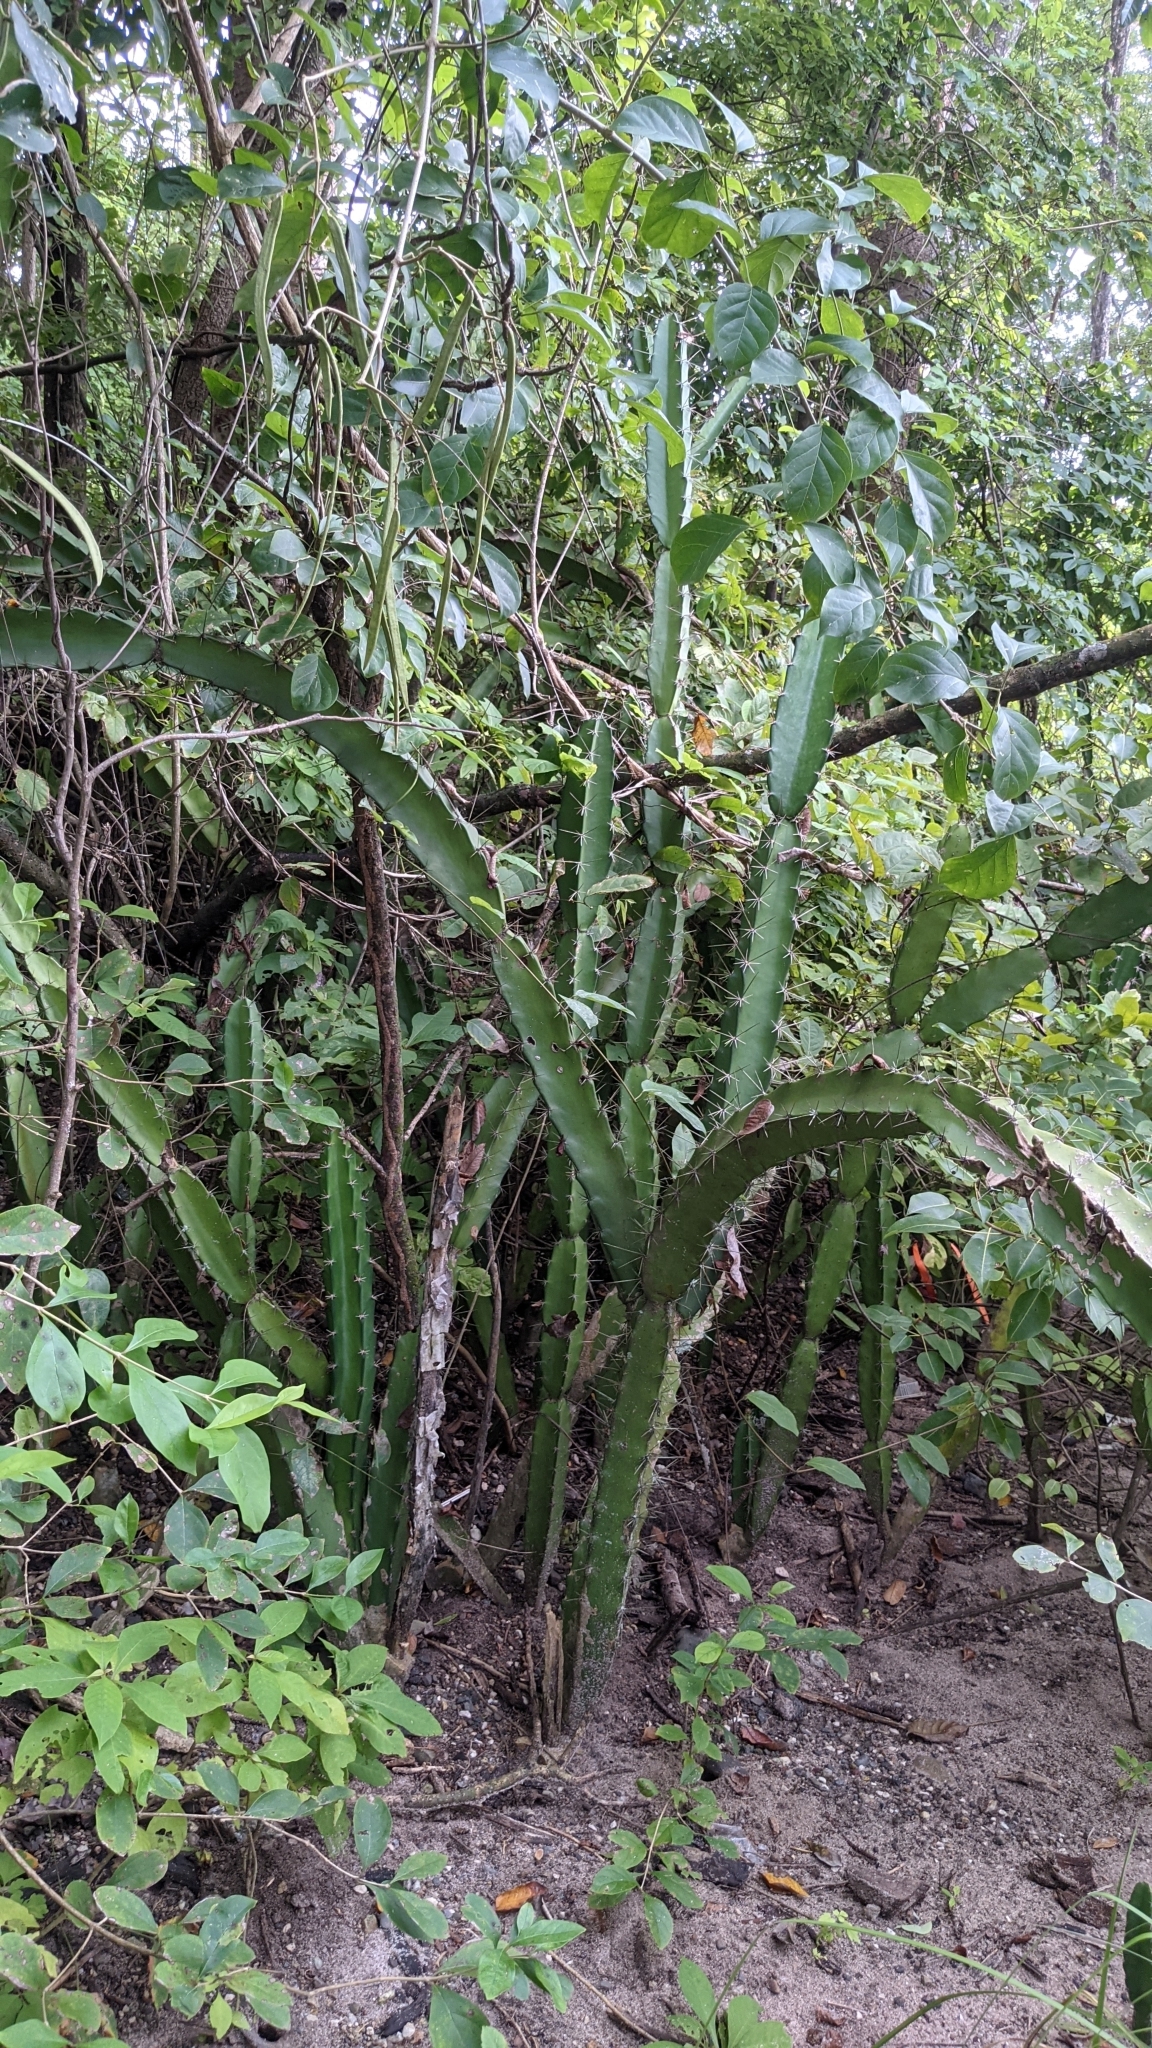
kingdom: Plantae
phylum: Tracheophyta
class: Magnoliopsida
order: Caryophyllales
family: Cactaceae
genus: Acanthocereus
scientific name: Acanthocereus tetragonus
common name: Triangle cactus
